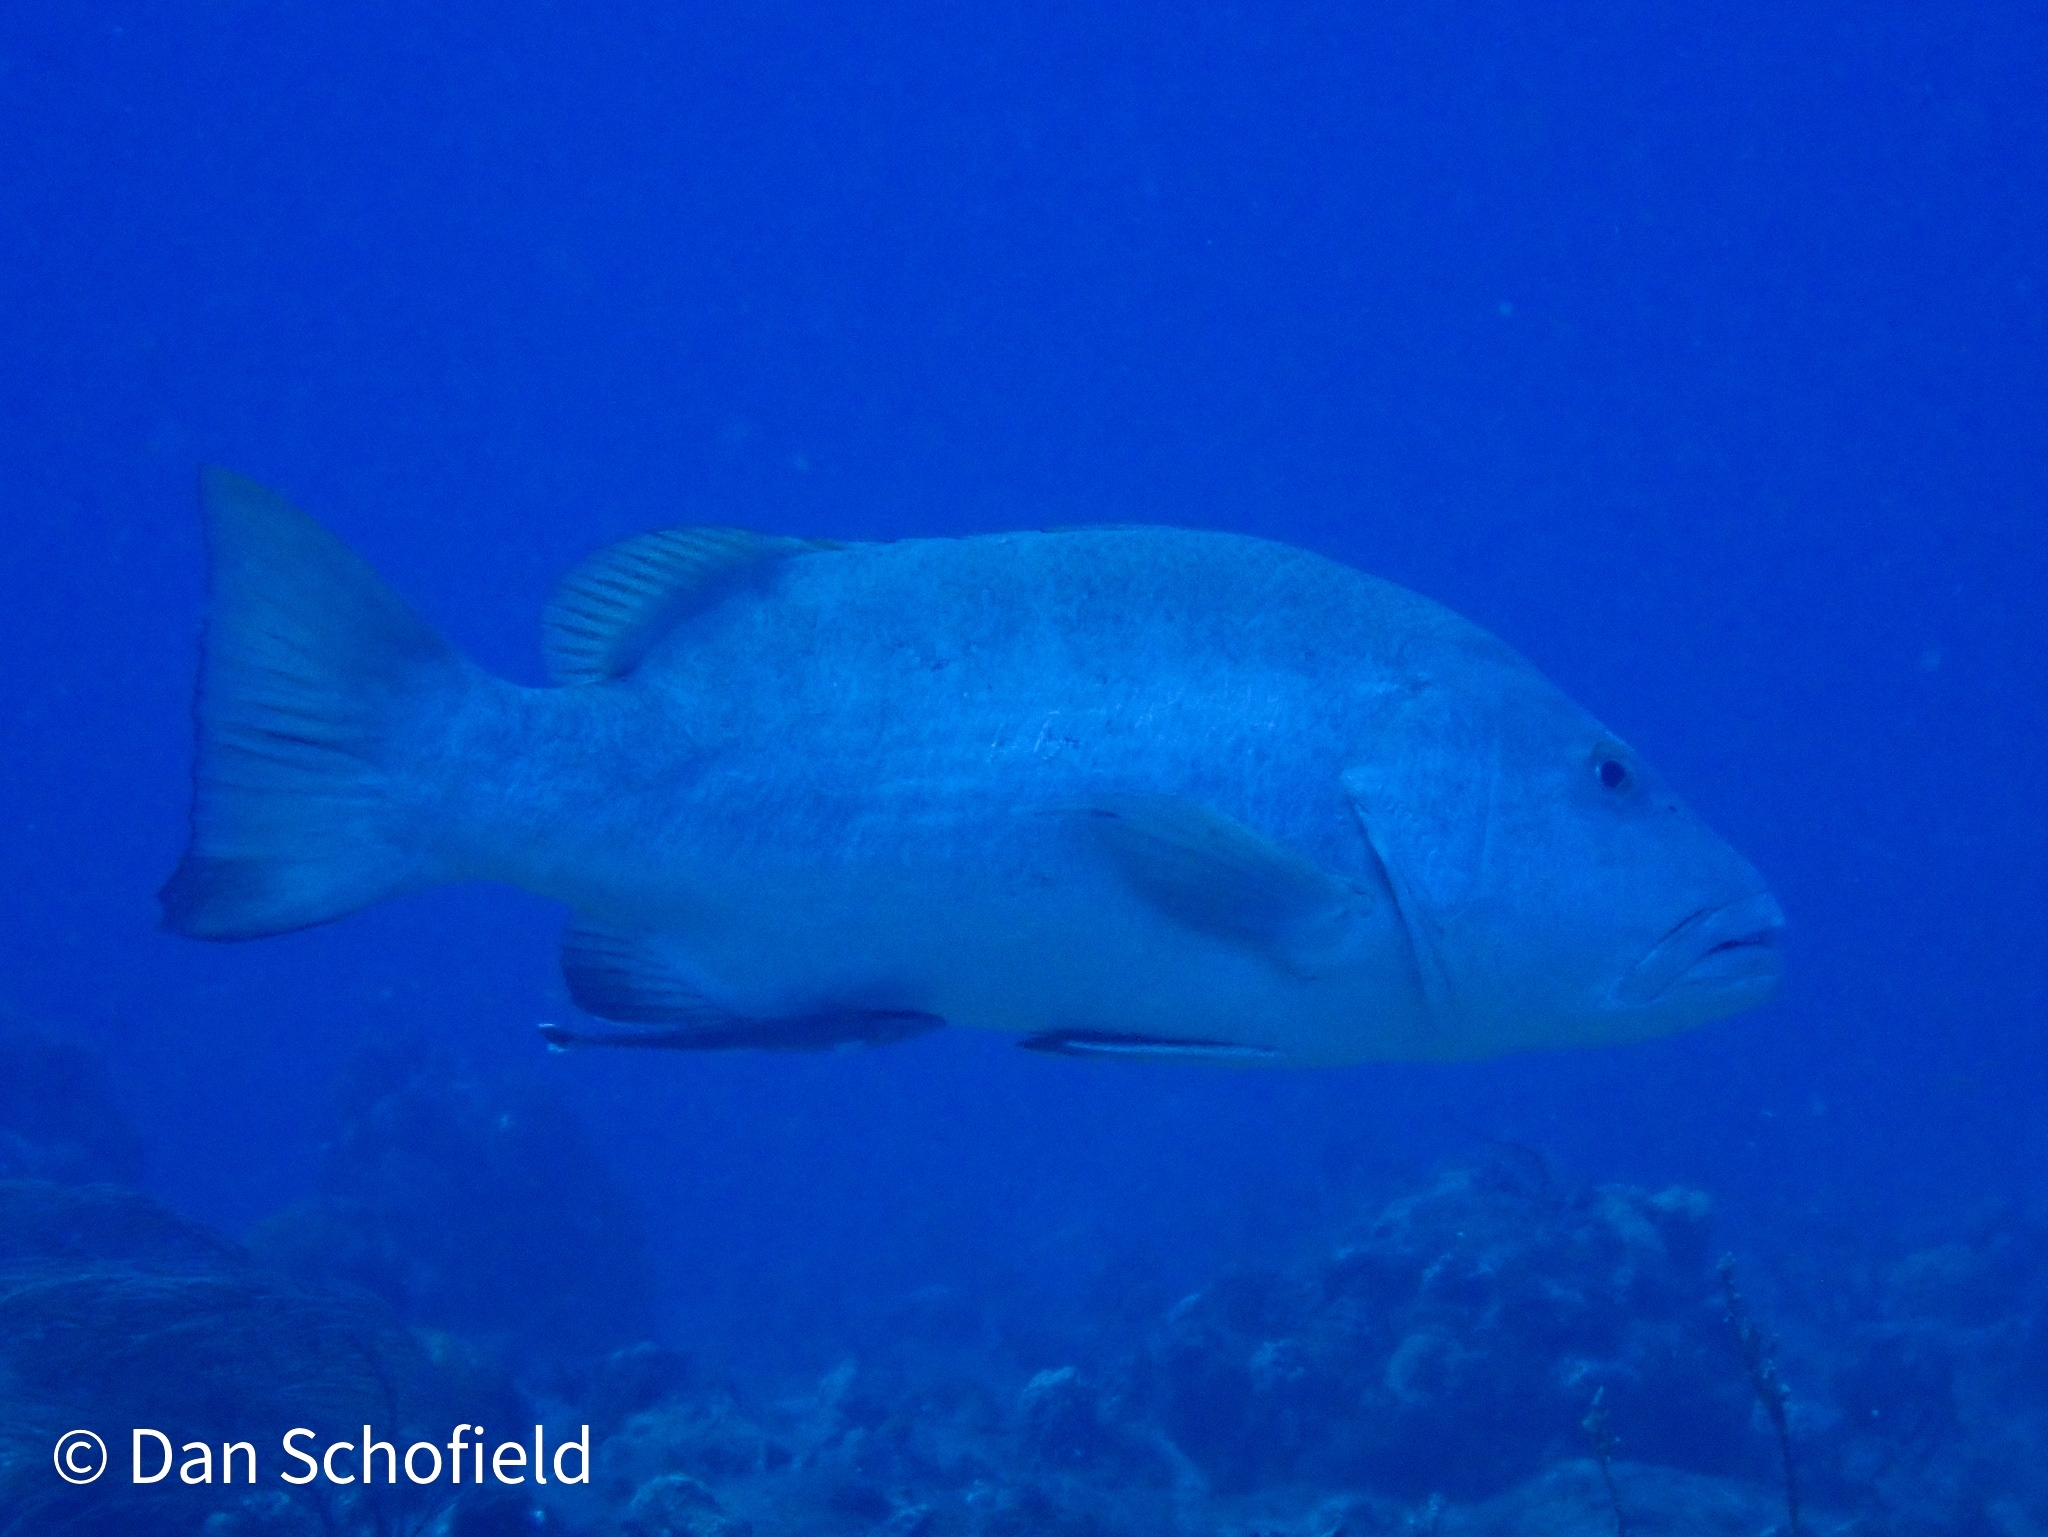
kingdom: Animalia
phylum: Chordata
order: Perciformes
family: Lutjanidae
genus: Lutjanus
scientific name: Lutjanus cyanopterus
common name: Cubera snapper
